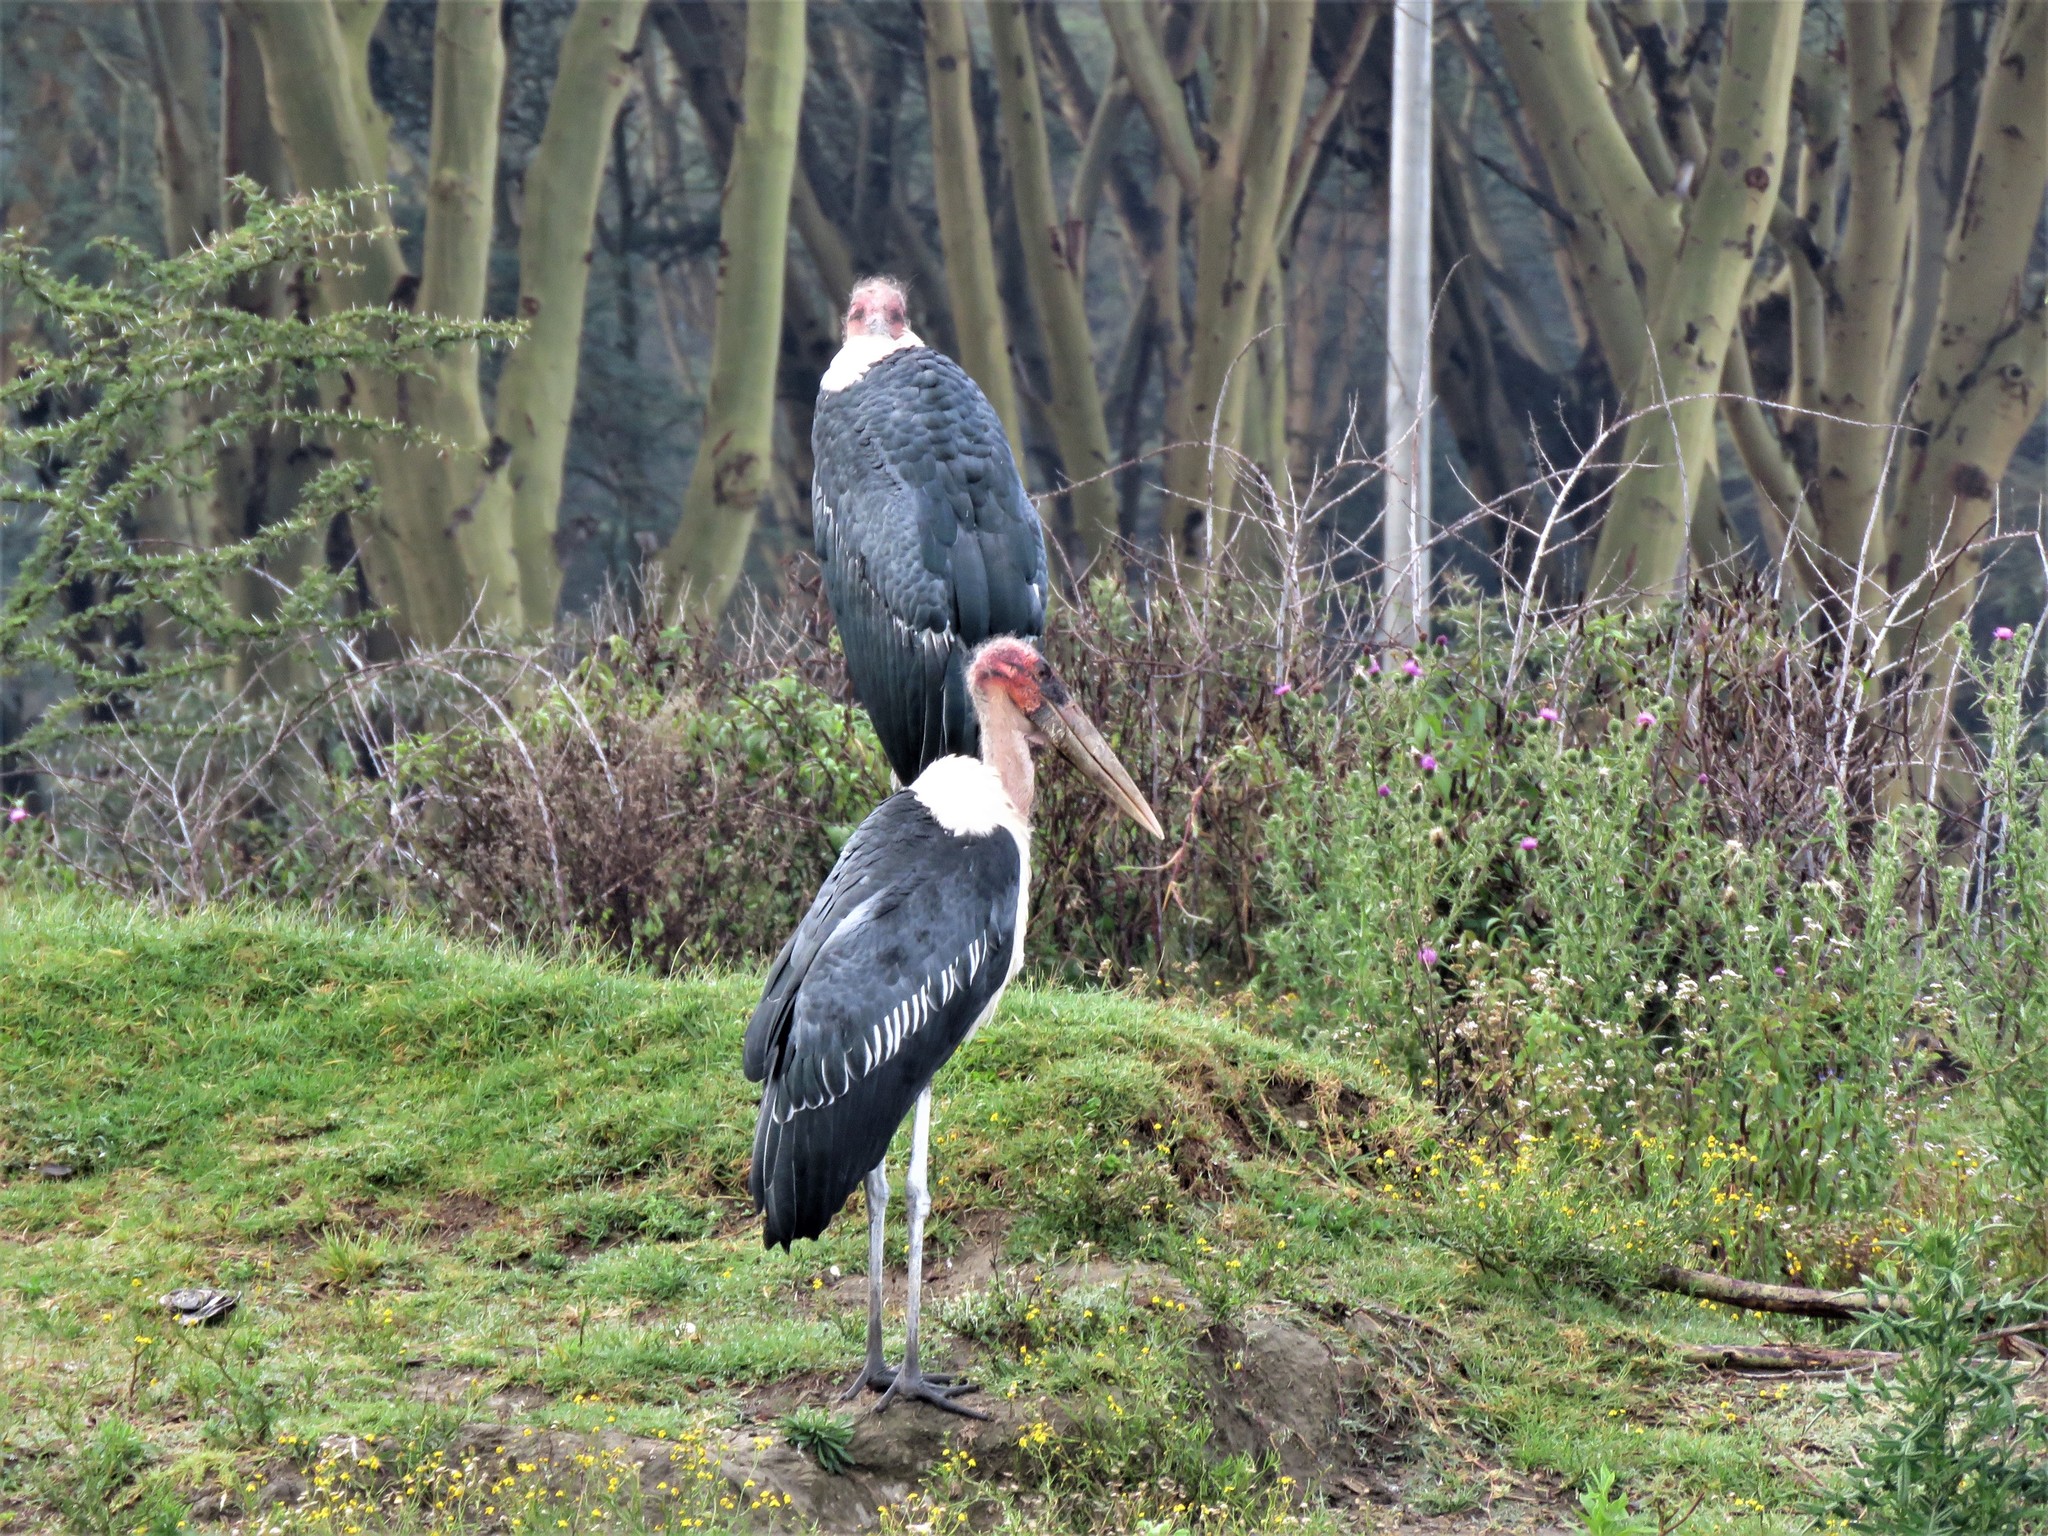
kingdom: Animalia
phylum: Chordata
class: Aves
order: Ciconiiformes
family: Ciconiidae
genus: Leptoptilos
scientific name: Leptoptilos crumenifer
